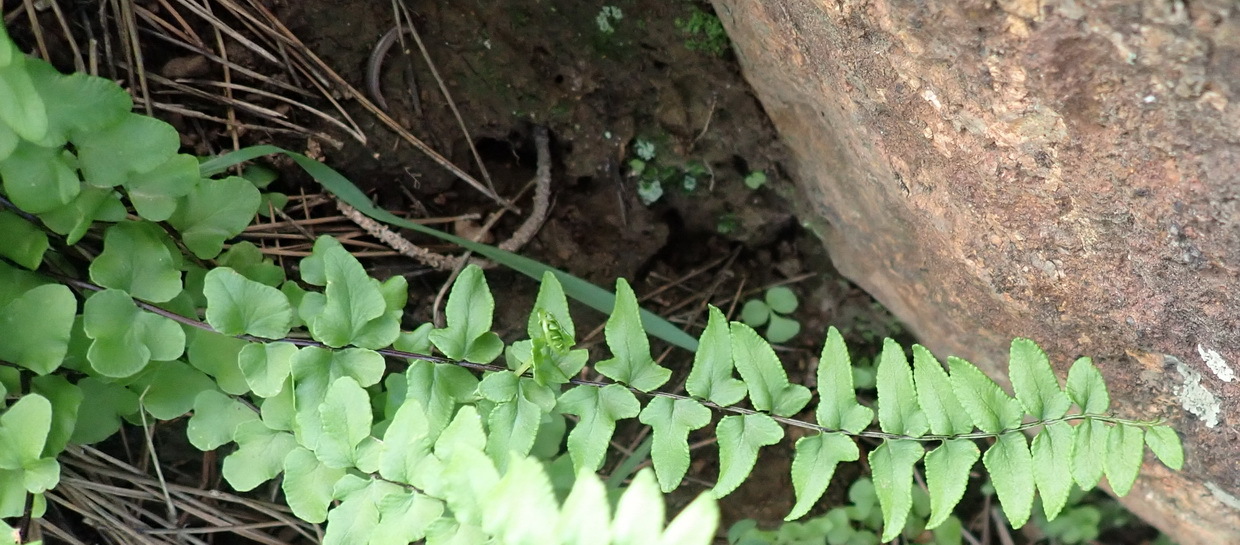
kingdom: Plantae
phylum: Tracheophyta
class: Polypodiopsida
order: Polypodiales
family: Pteridaceae
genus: Cheilanthes
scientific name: Cheilanthes hastata
